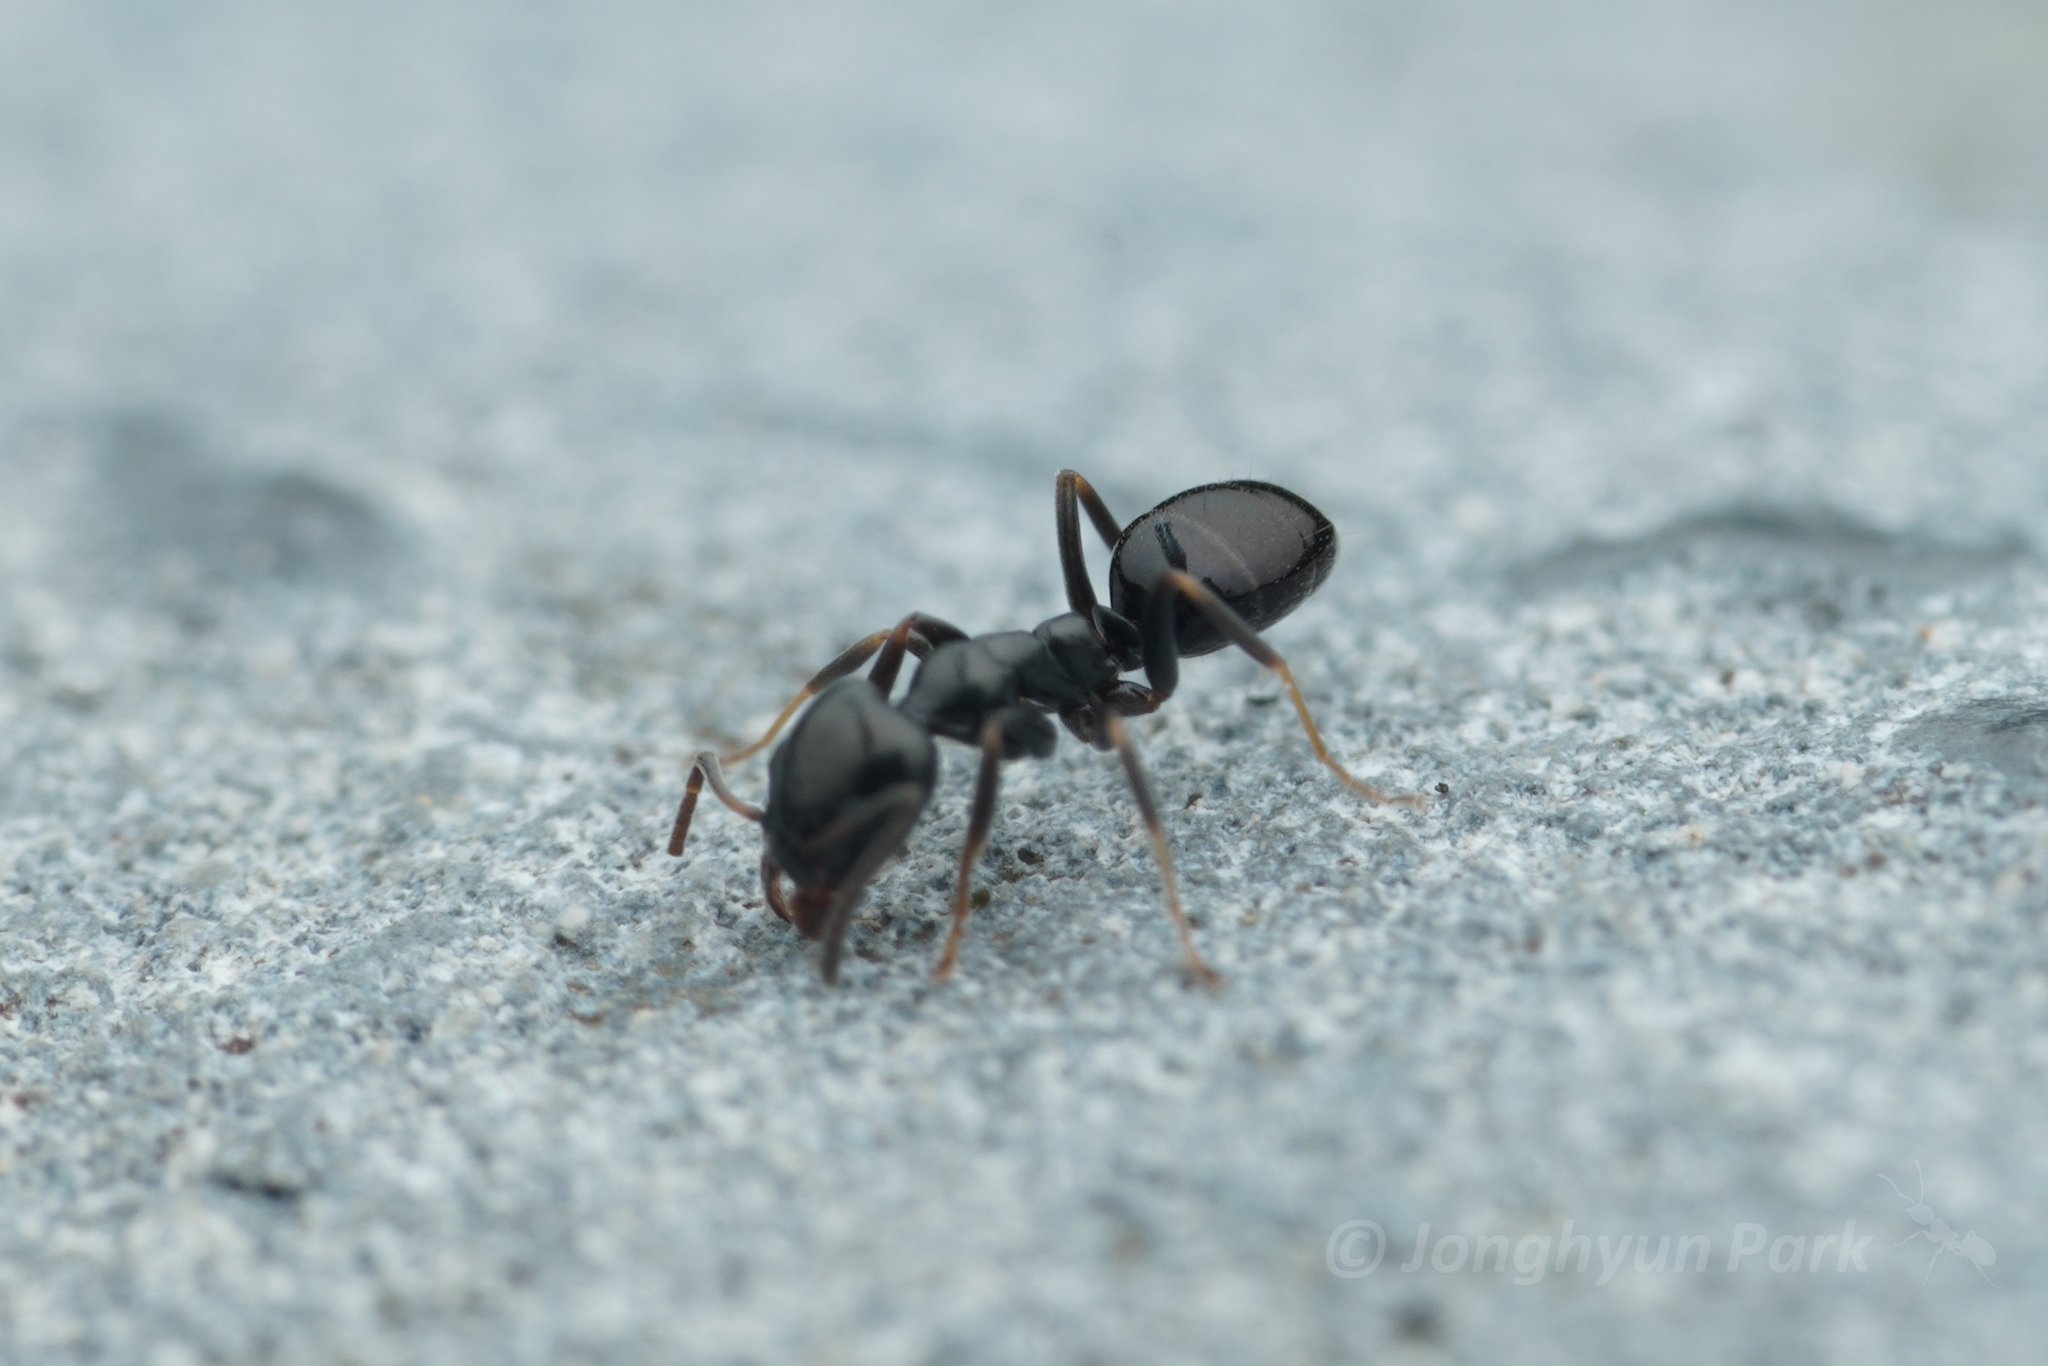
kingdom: Animalia
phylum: Arthropoda
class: Insecta
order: Hymenoptera
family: Formicidae
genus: Ochetellus
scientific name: Ochetellus glaber
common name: Ant
